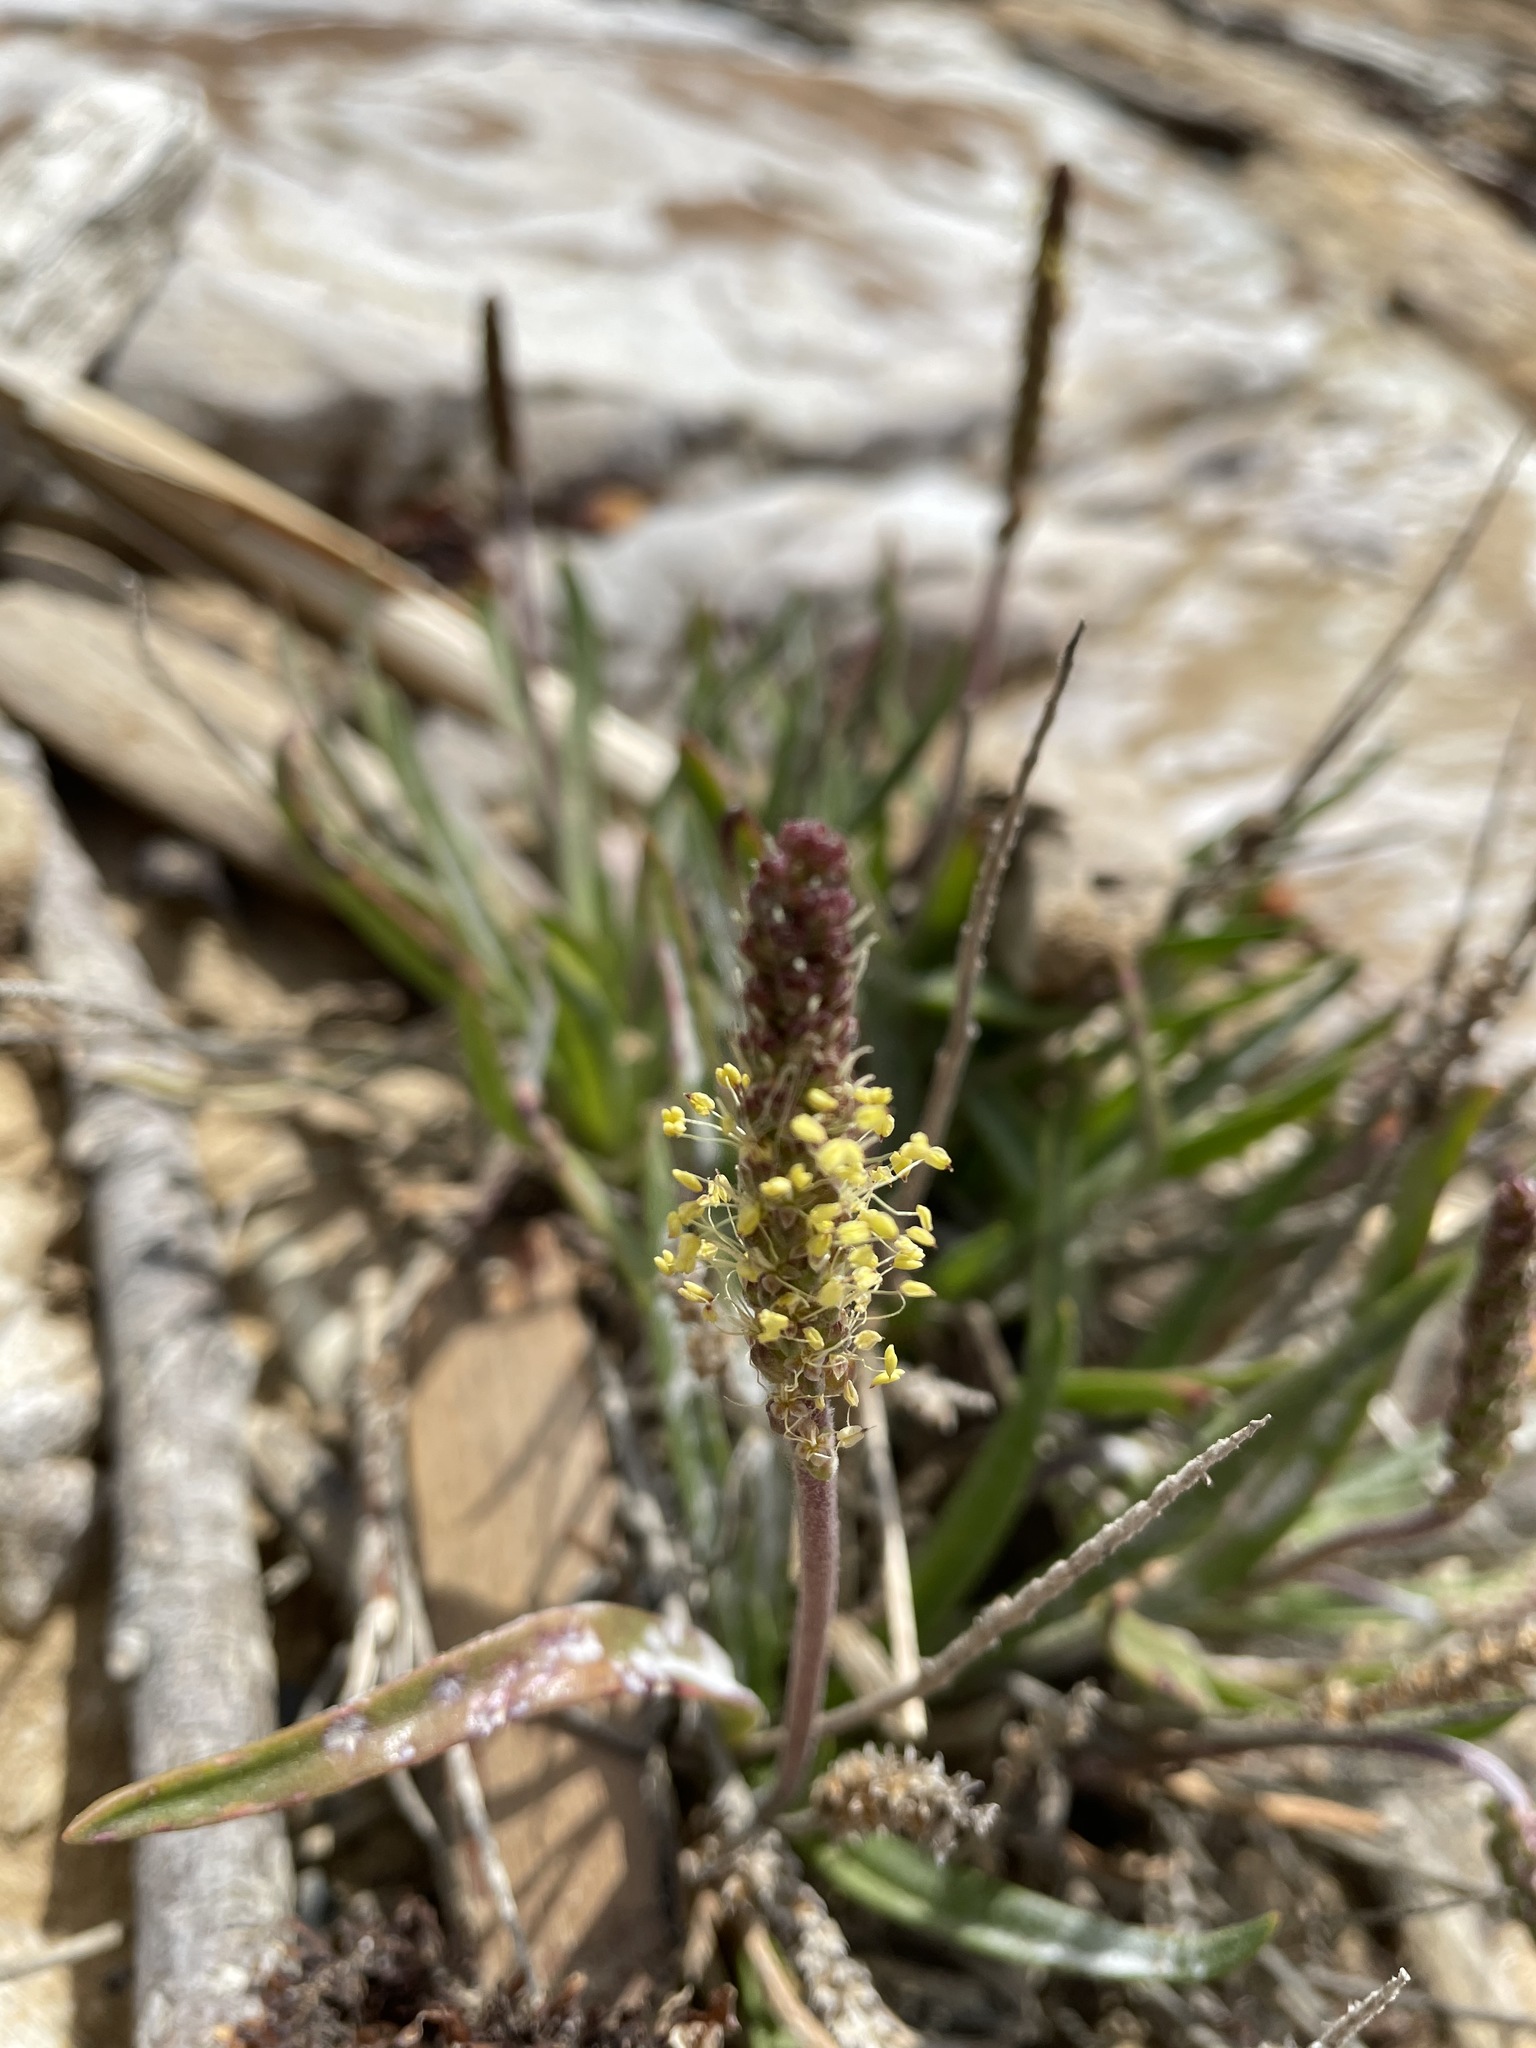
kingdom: Plantae
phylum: Tracheophyta
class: Magnoliopsida
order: Lamiales
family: Plantaginaceae
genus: Plantago
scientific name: Plantago maritima
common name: Sea plantain
